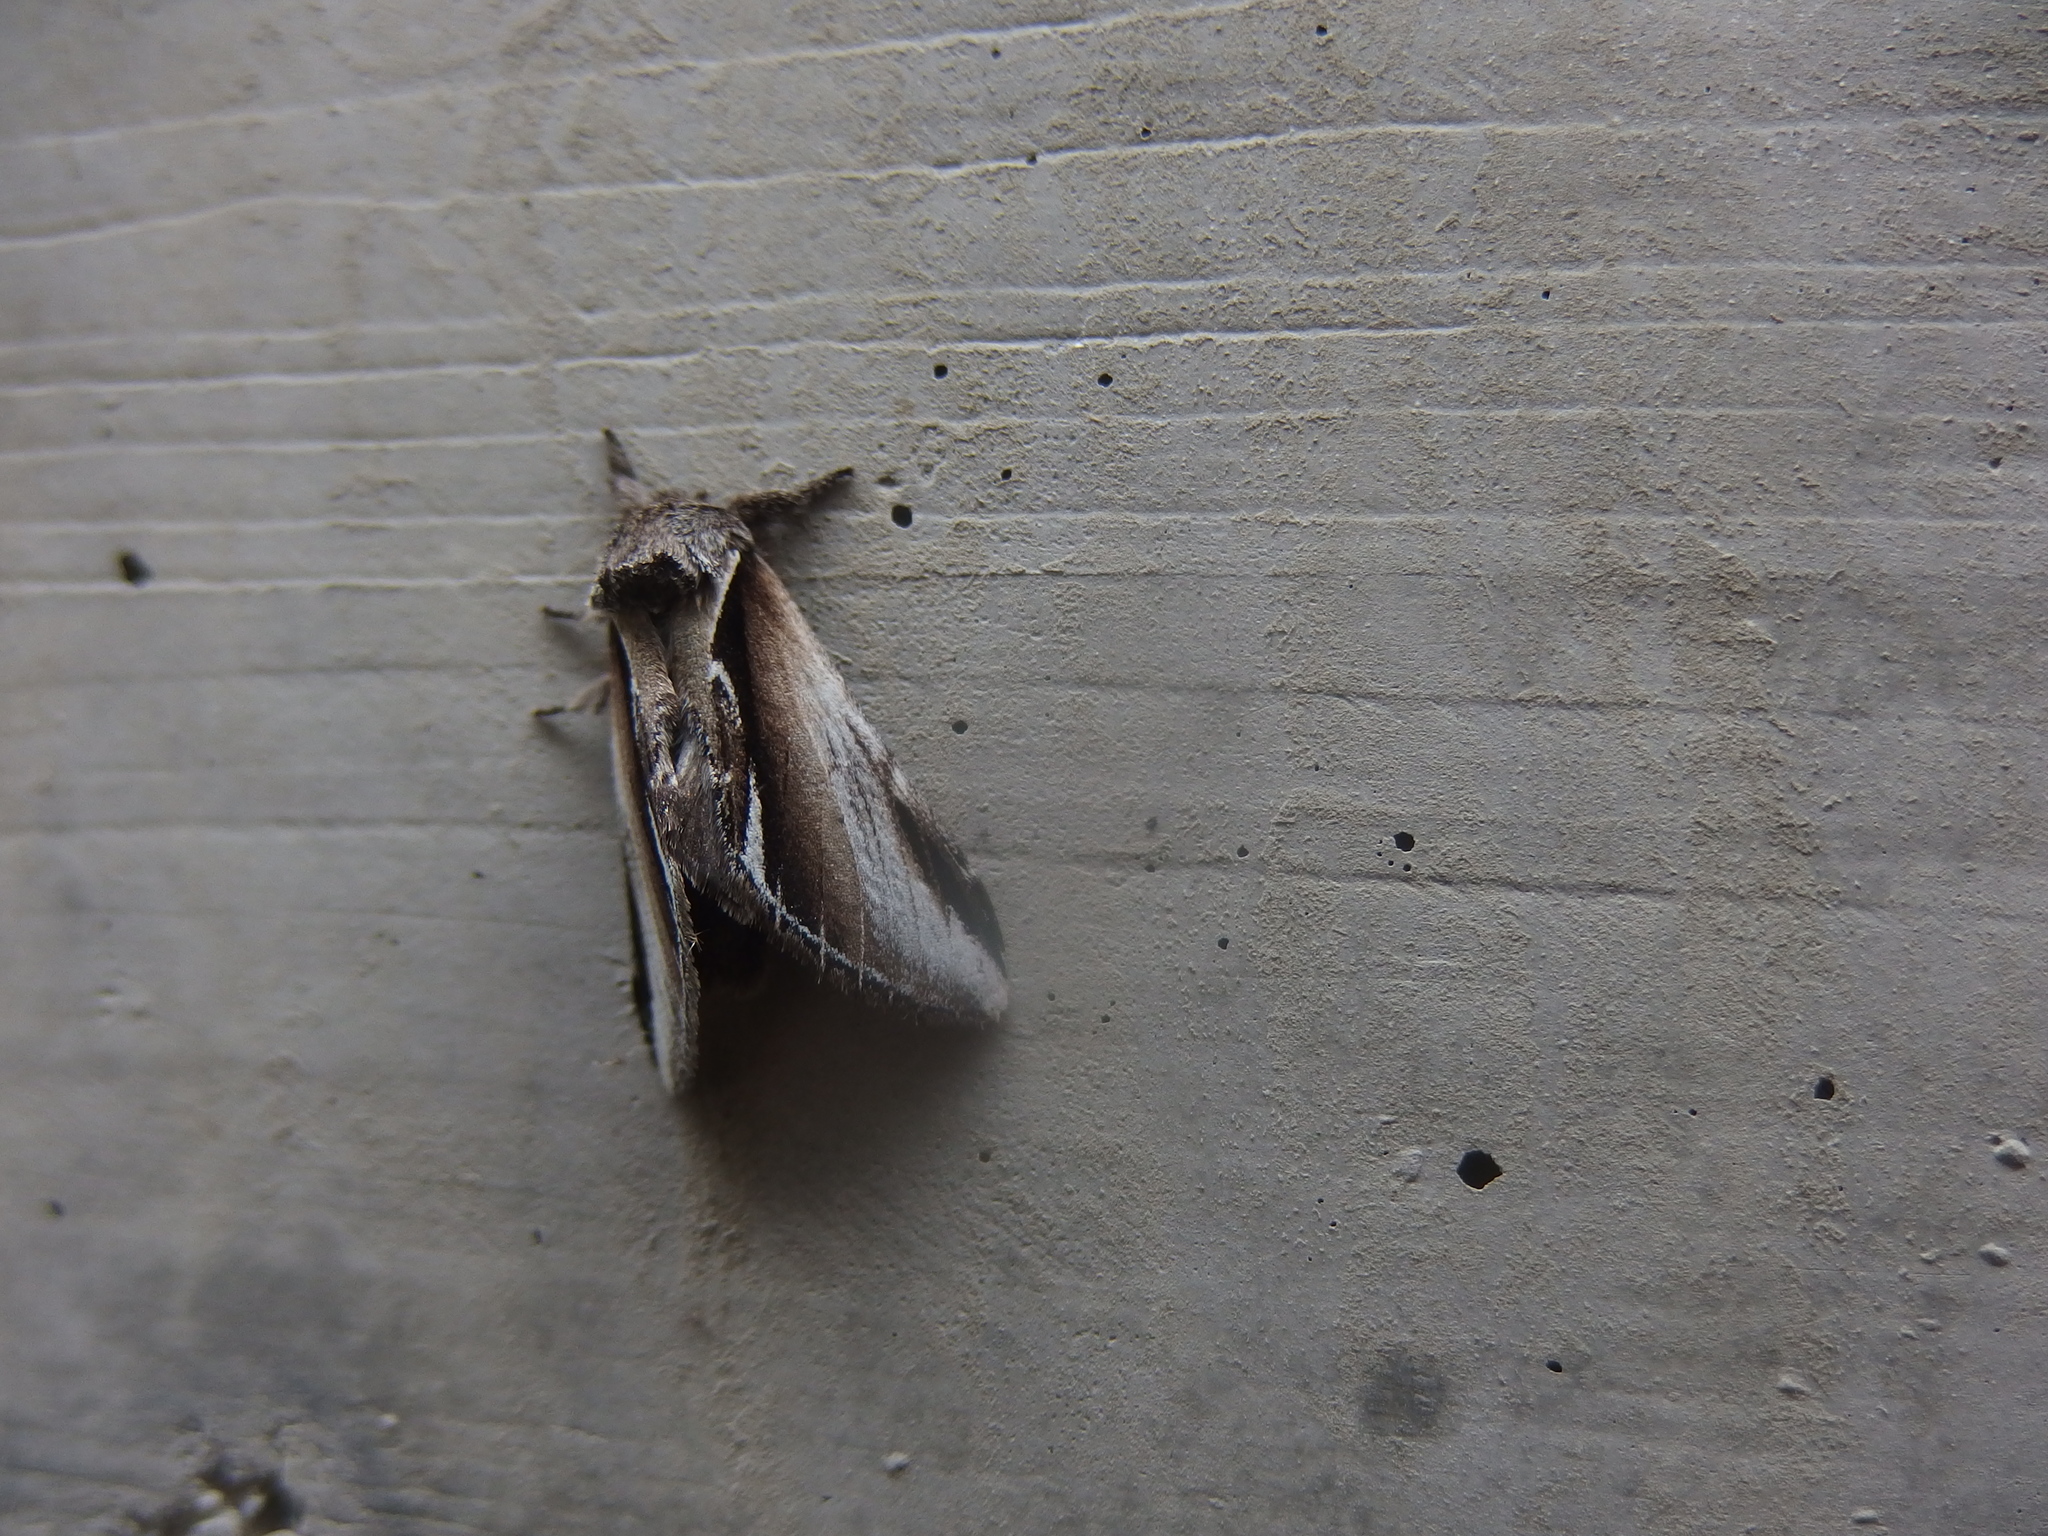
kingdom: Animalia
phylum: Arthropoda
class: Insecta
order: Lepidoptera
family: Notodontidae
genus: Pheosia
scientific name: Pheosia gnoma
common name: Lesser swallow prominent
